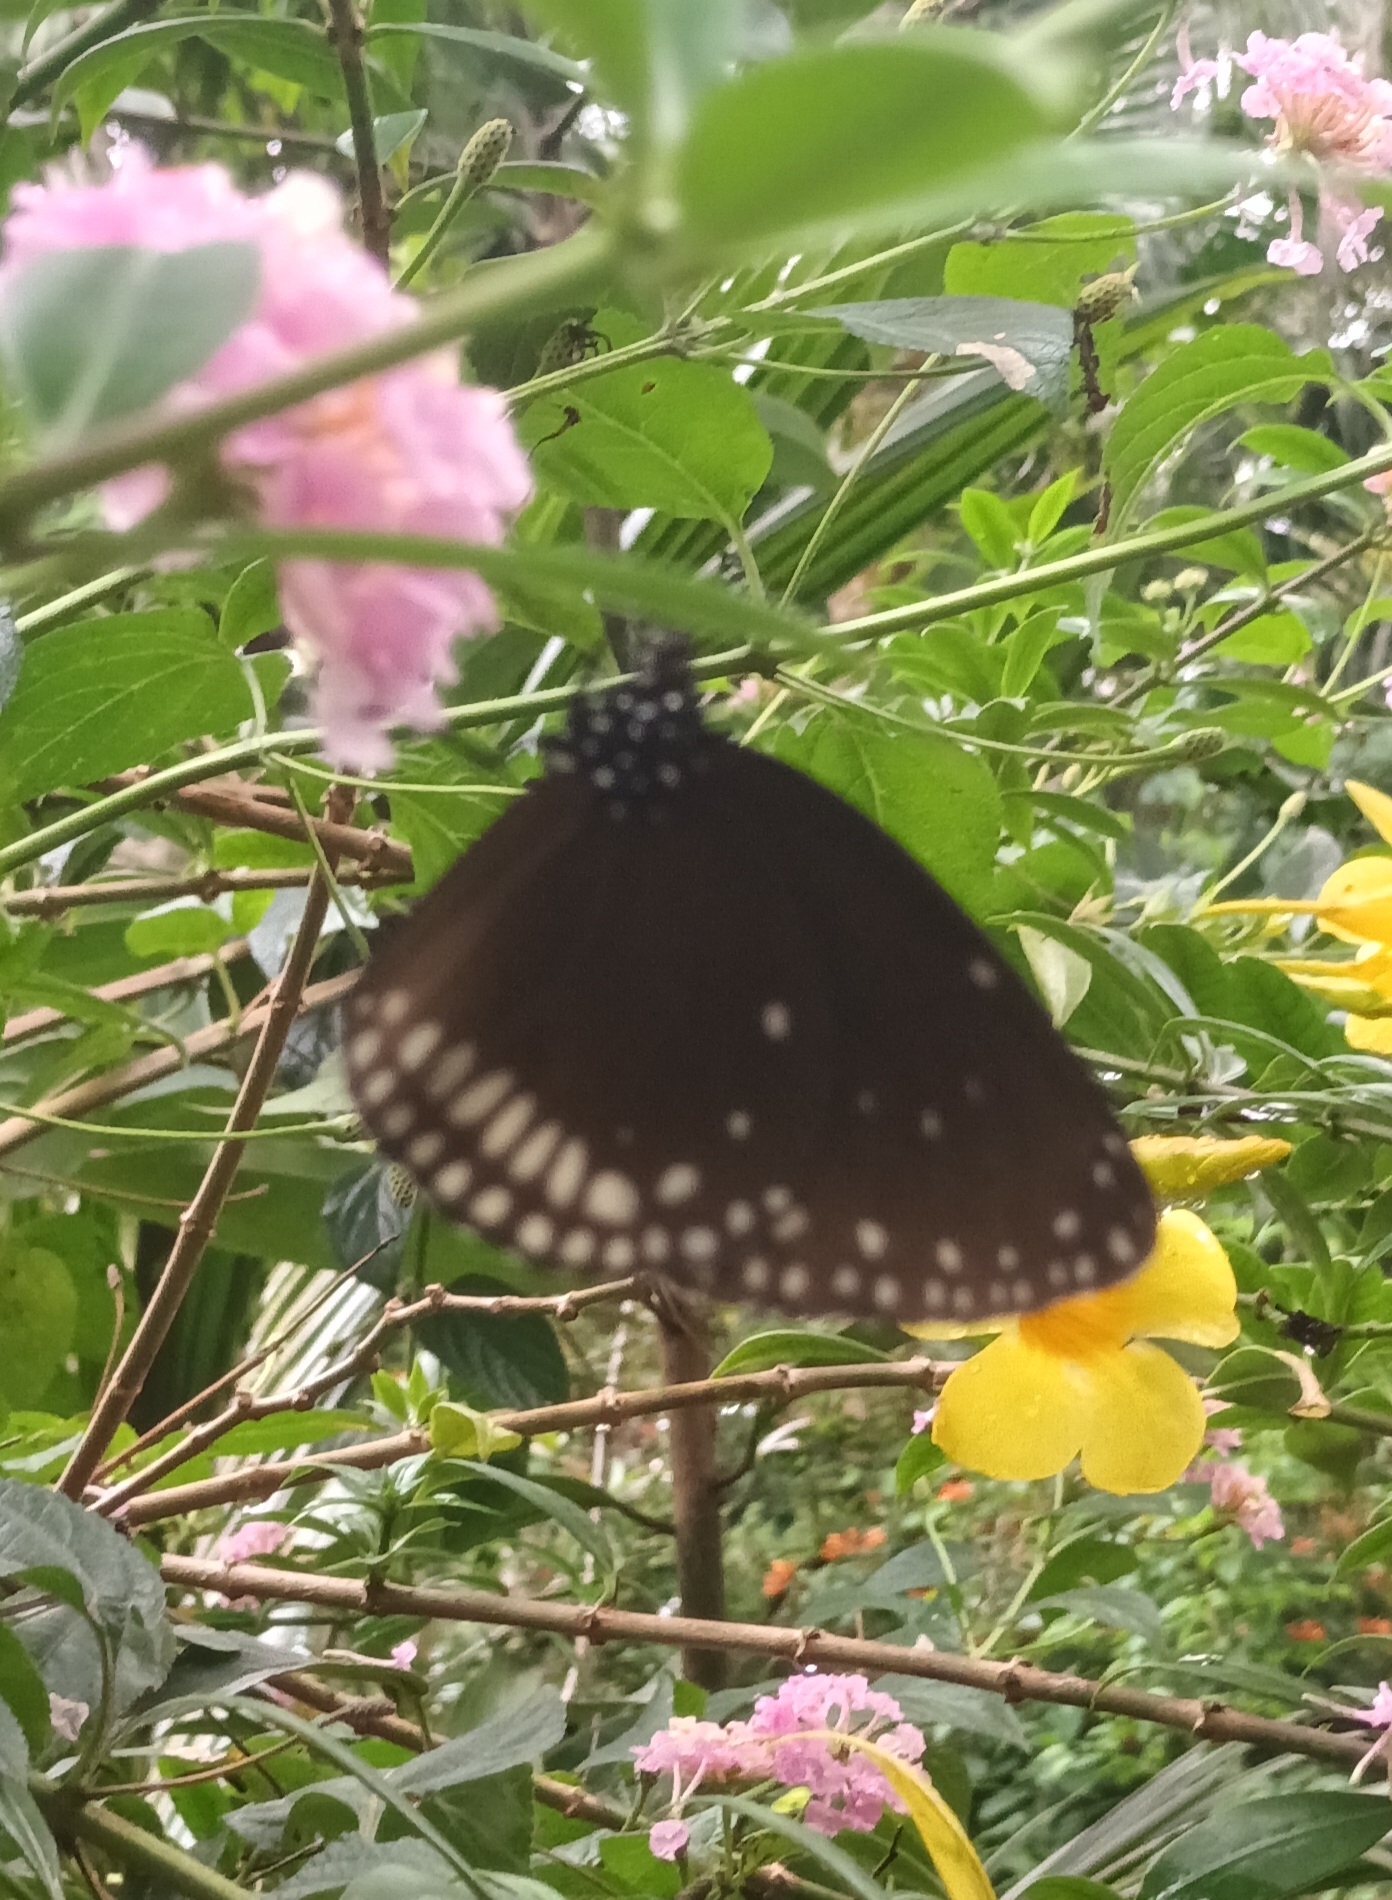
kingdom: Animalia
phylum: Arthropoda
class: Insecta
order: Lepidoptera
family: Nymphalidae
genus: Euploea
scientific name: Euploea klugii
